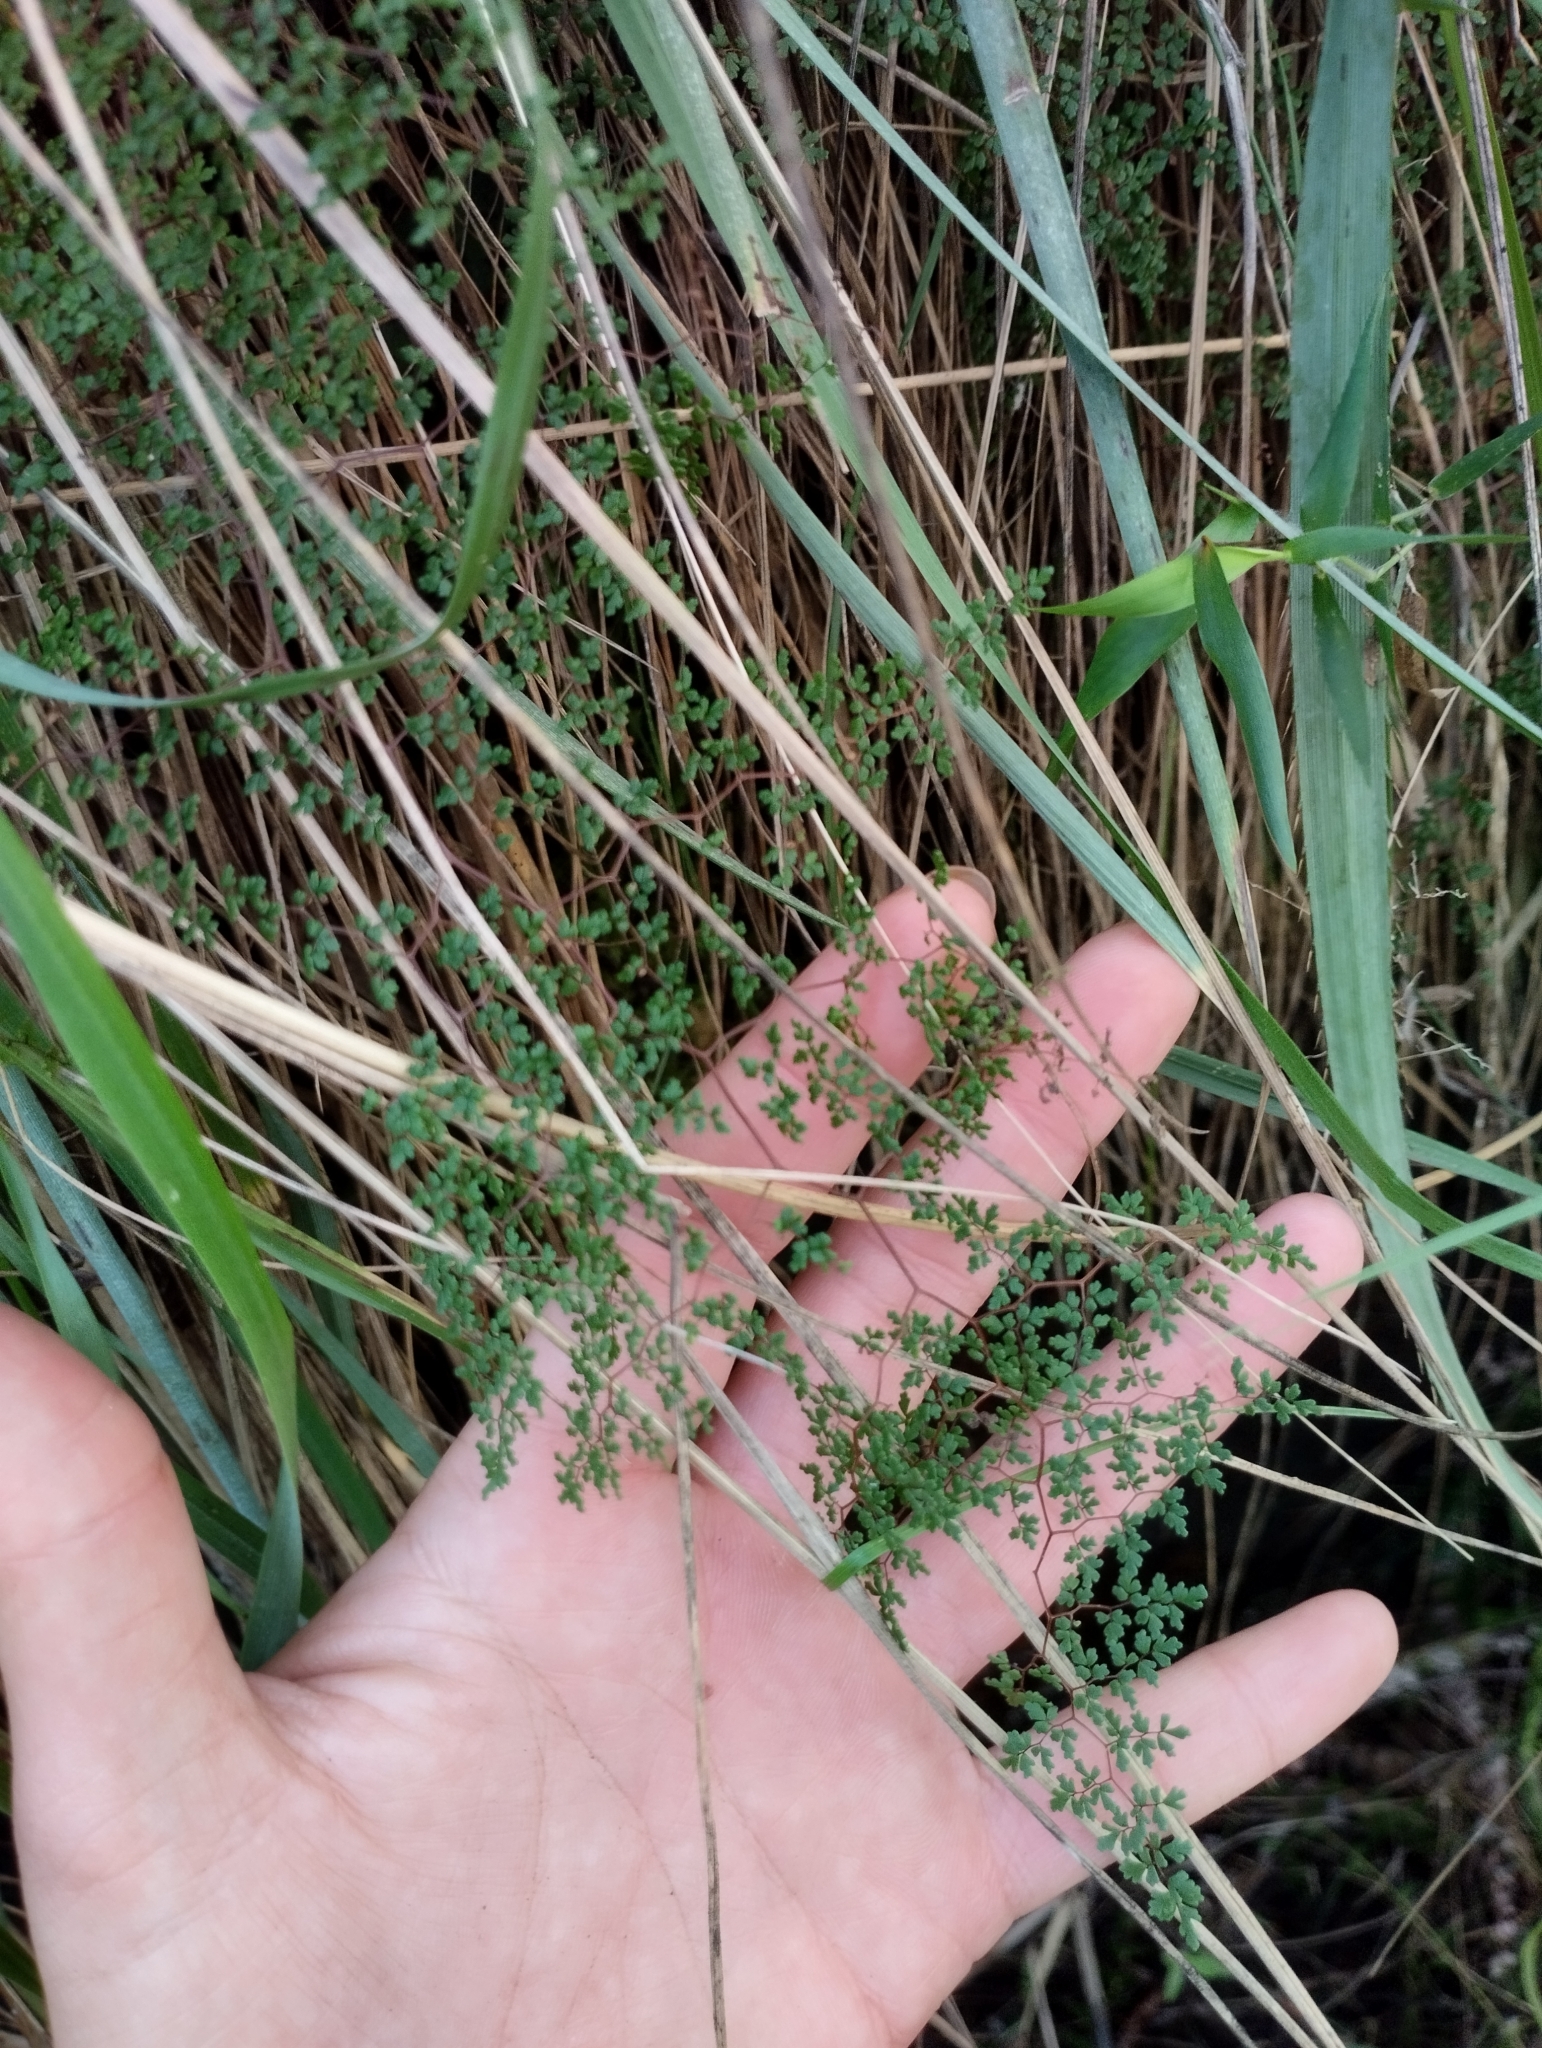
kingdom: Plantae
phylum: Tracheophyta
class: Polypodiopsida
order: Polypodiales
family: Pteridaceae
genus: Adiantopsis
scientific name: Adiantopsis dichotoma
